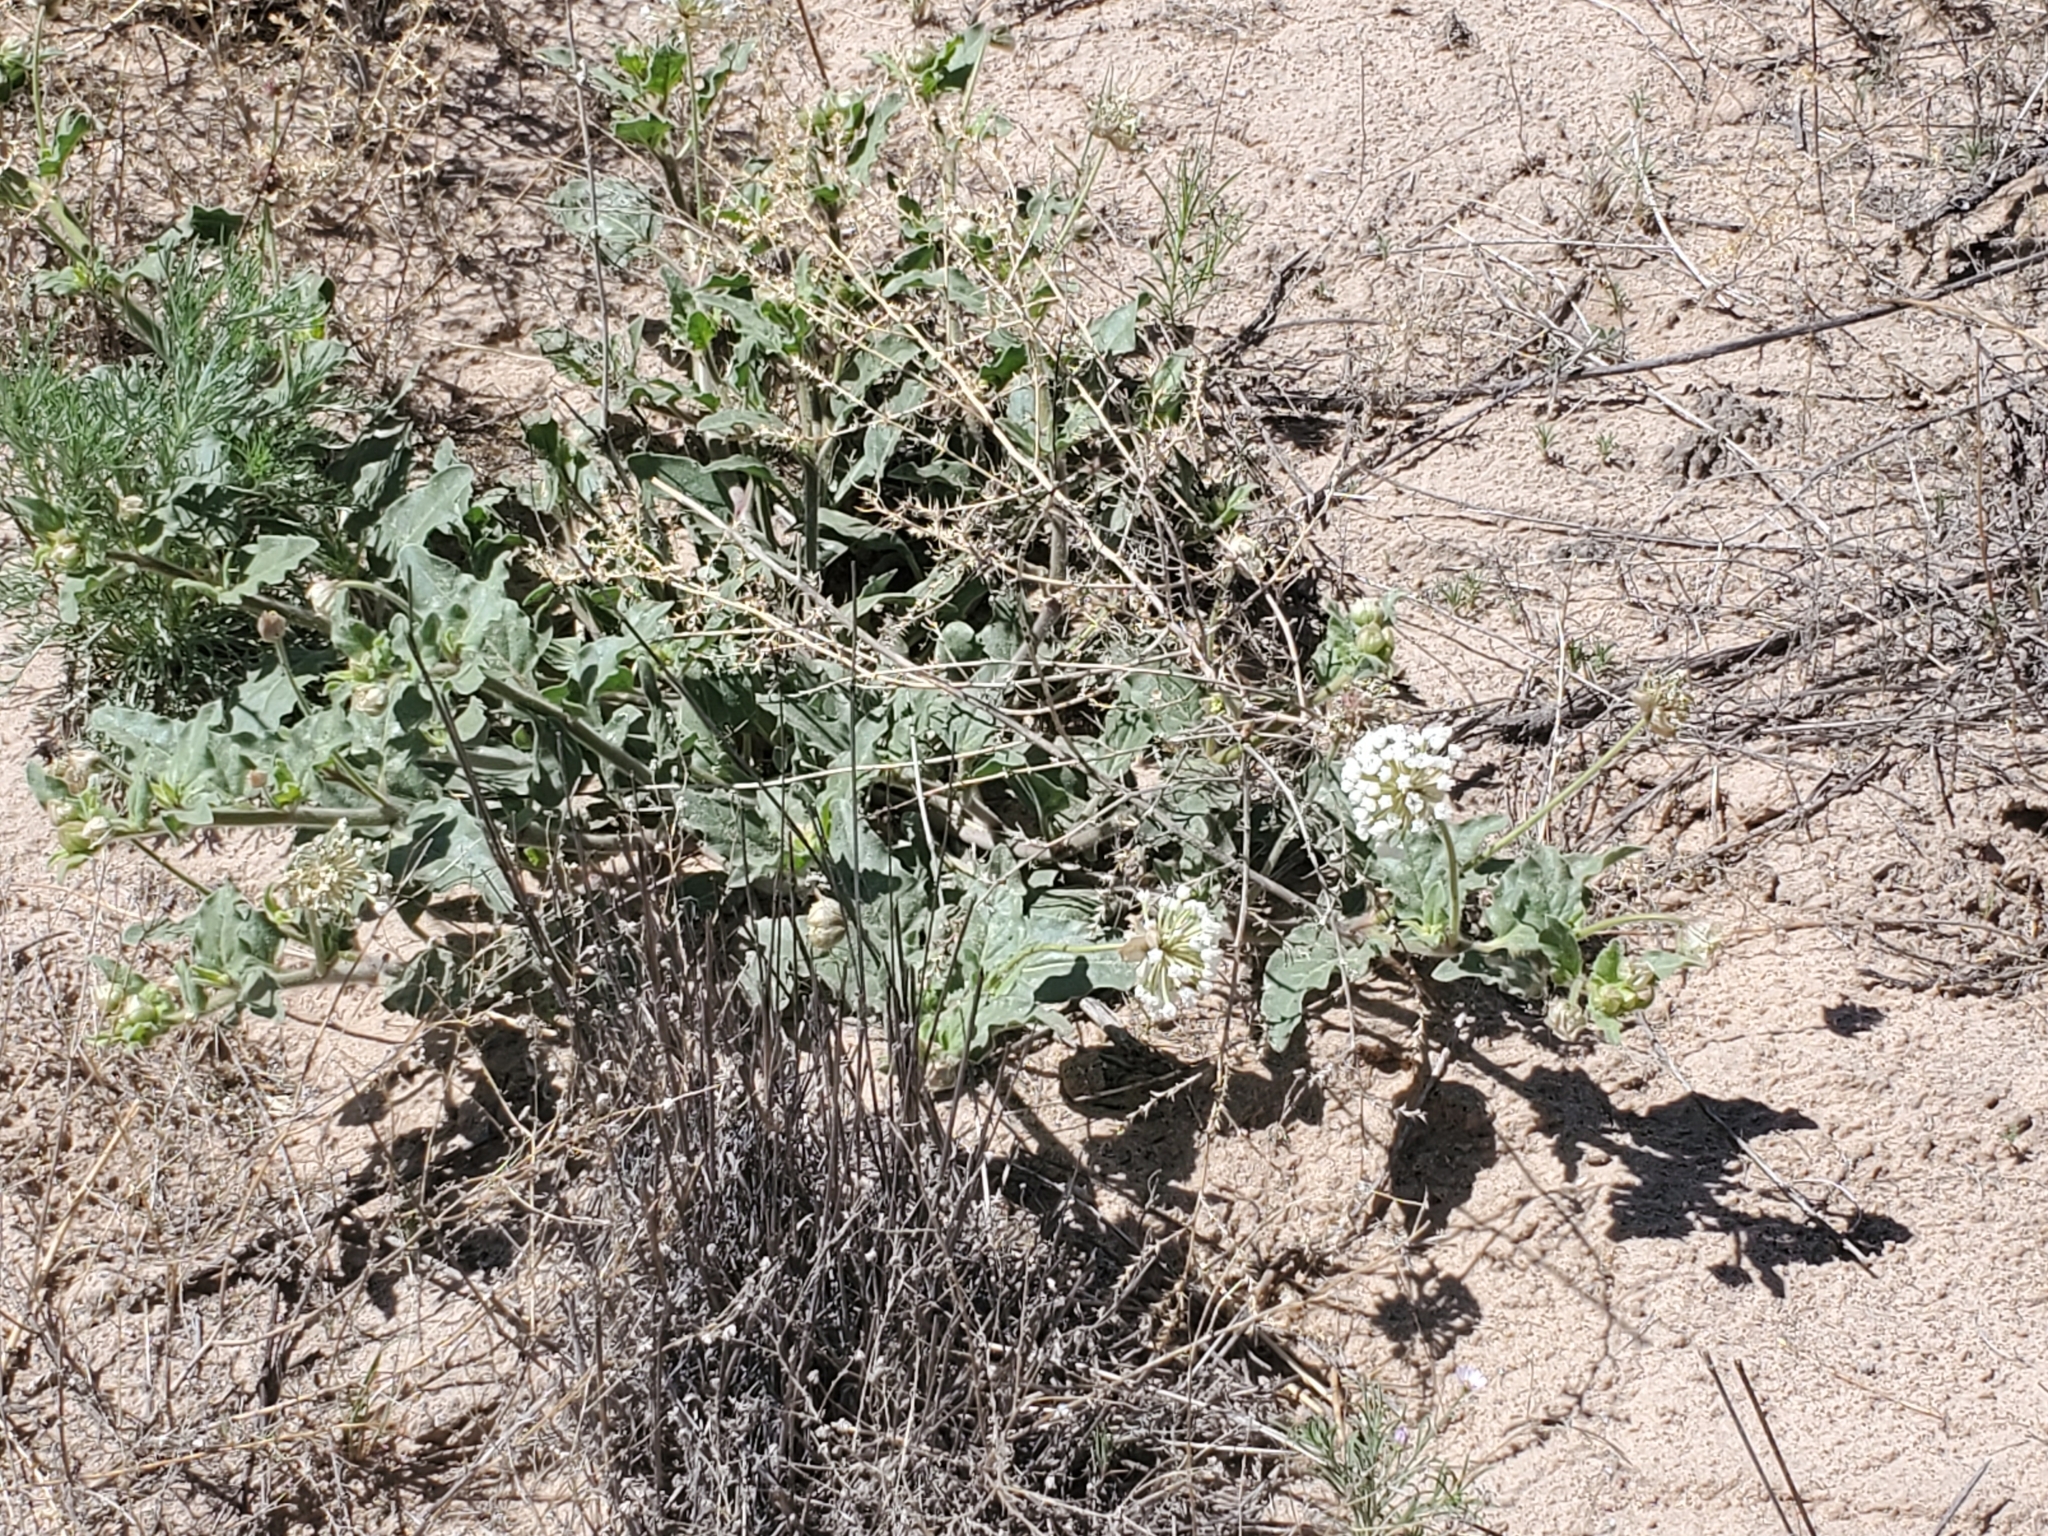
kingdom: Plantae
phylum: Tracheophyta
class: Magnoliopsida
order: Caryophyllales
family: Nyctaginaceae
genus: Abronia
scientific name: Abronia fragrans
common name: Fragrant sand-verbena
